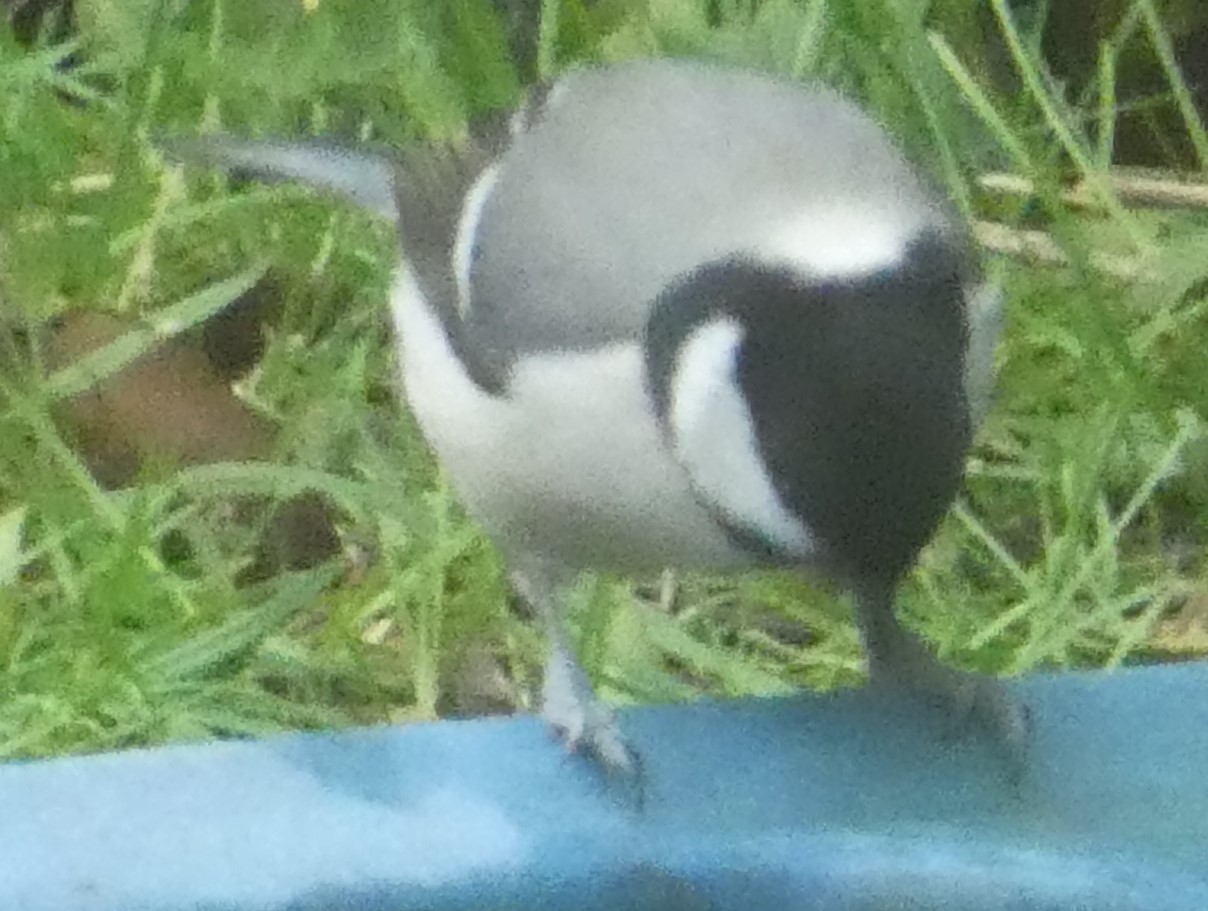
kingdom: Animalia
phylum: Chordata
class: Aves
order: Passeriformes
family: Paridae
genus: Parus
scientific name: Parus major
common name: Great tit
